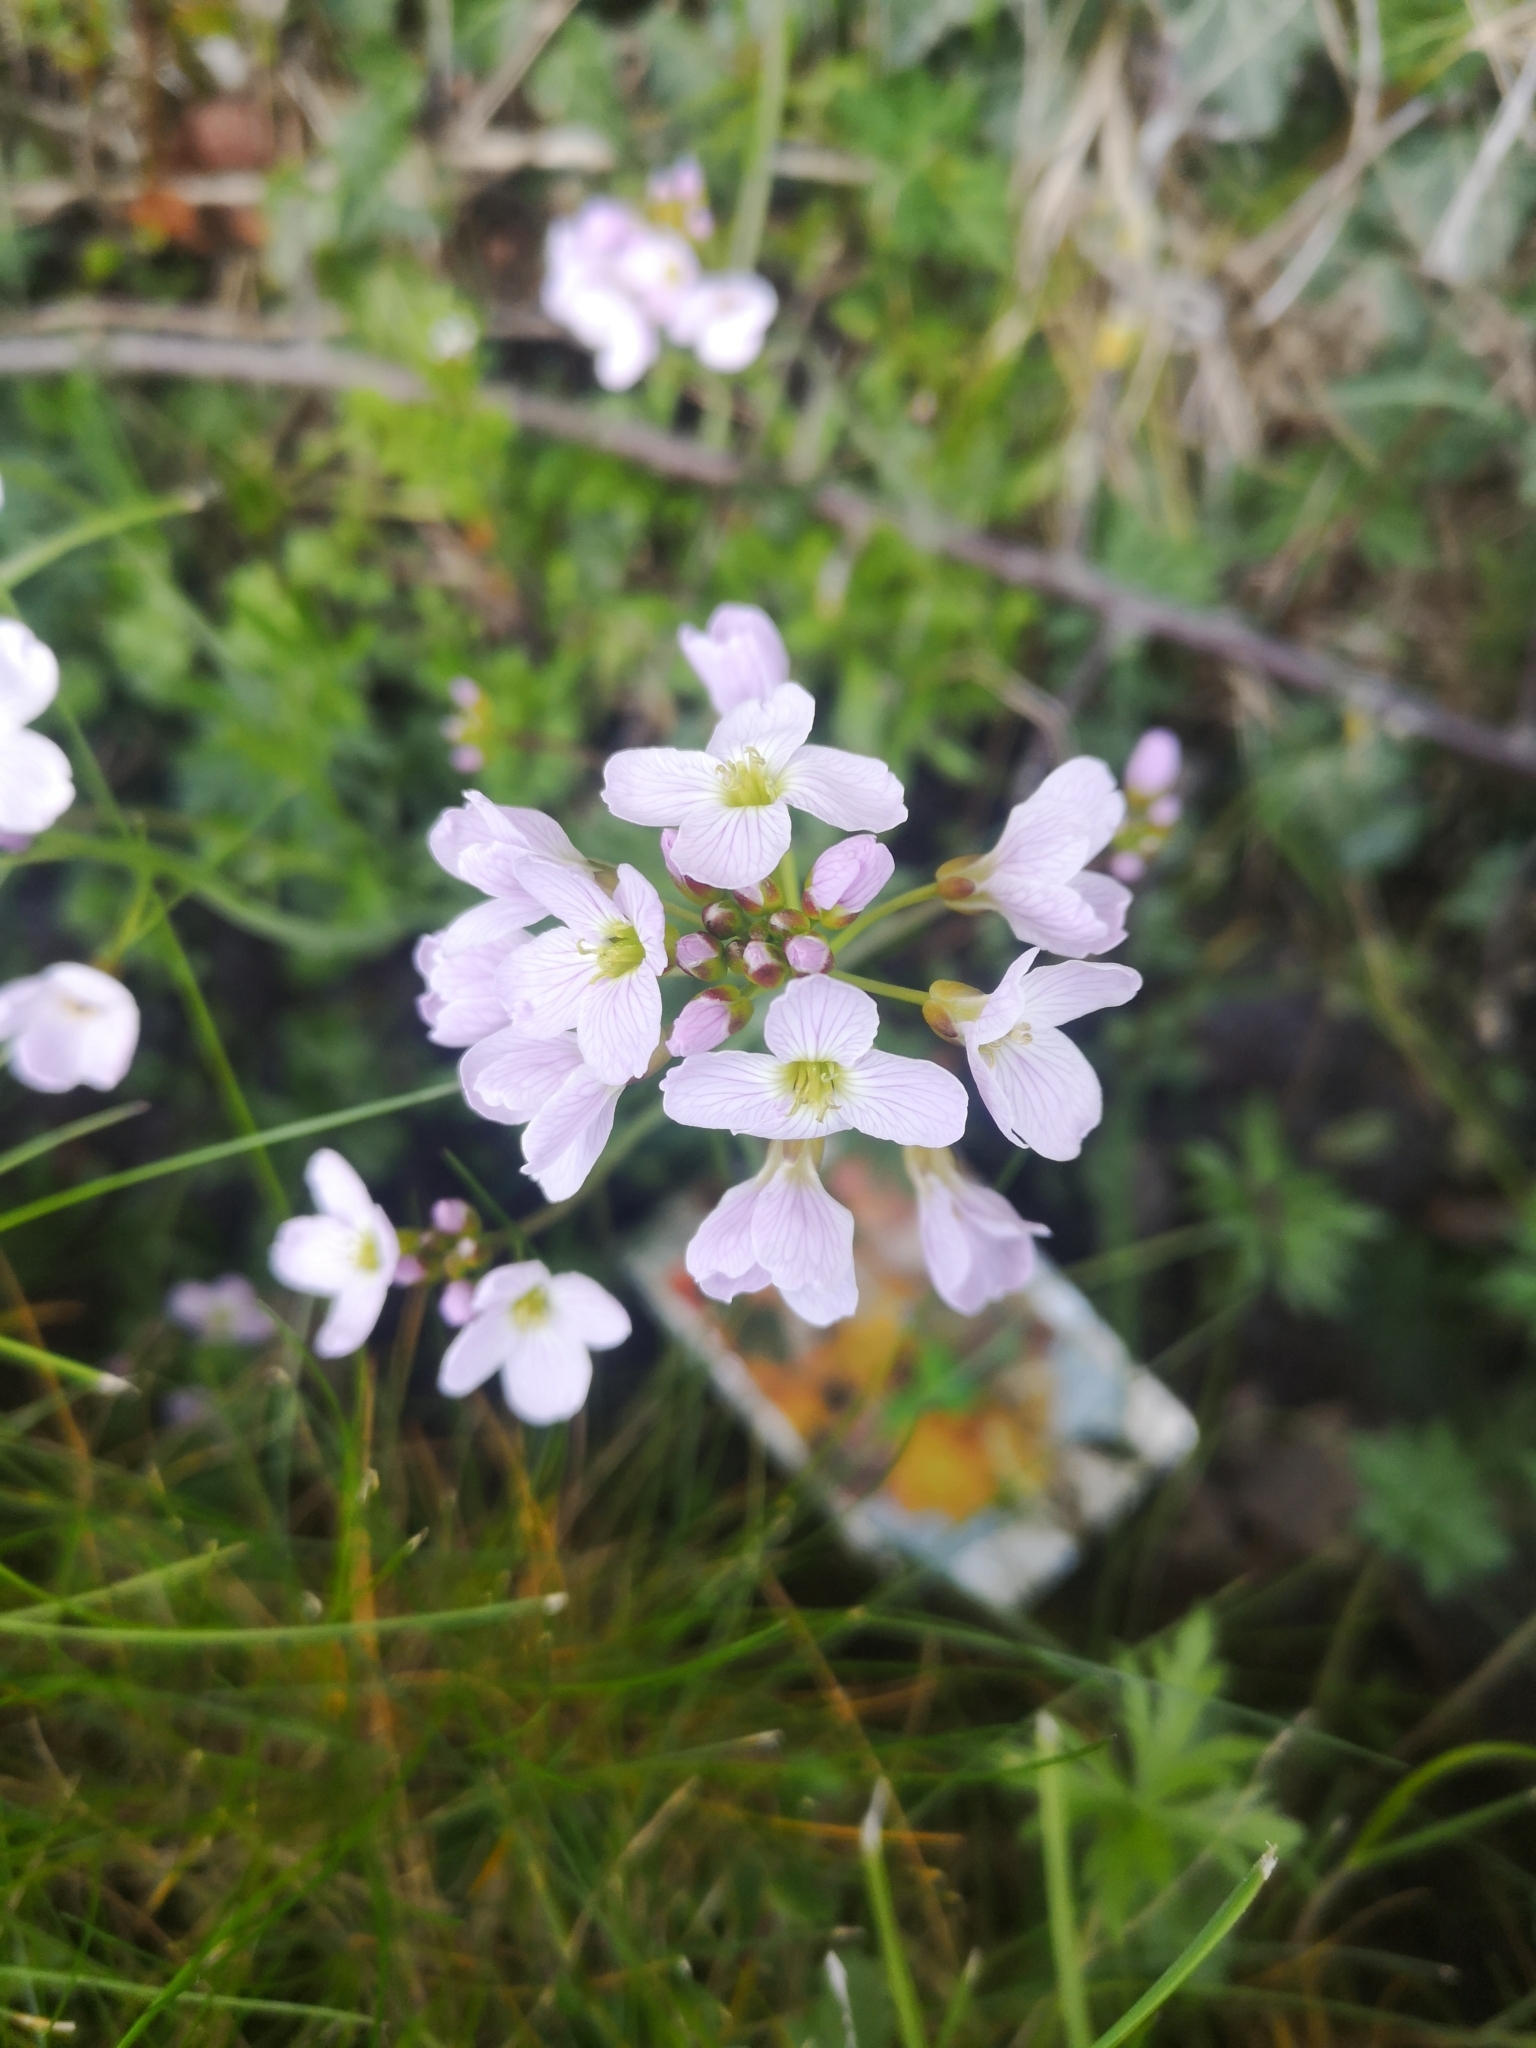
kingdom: Plantae
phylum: Tracheophyta
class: Magnoliopsida
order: Brassicales
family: Brassicaceae
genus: Cardamine
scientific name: Cardamine pratensis
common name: Cuckoo flower
